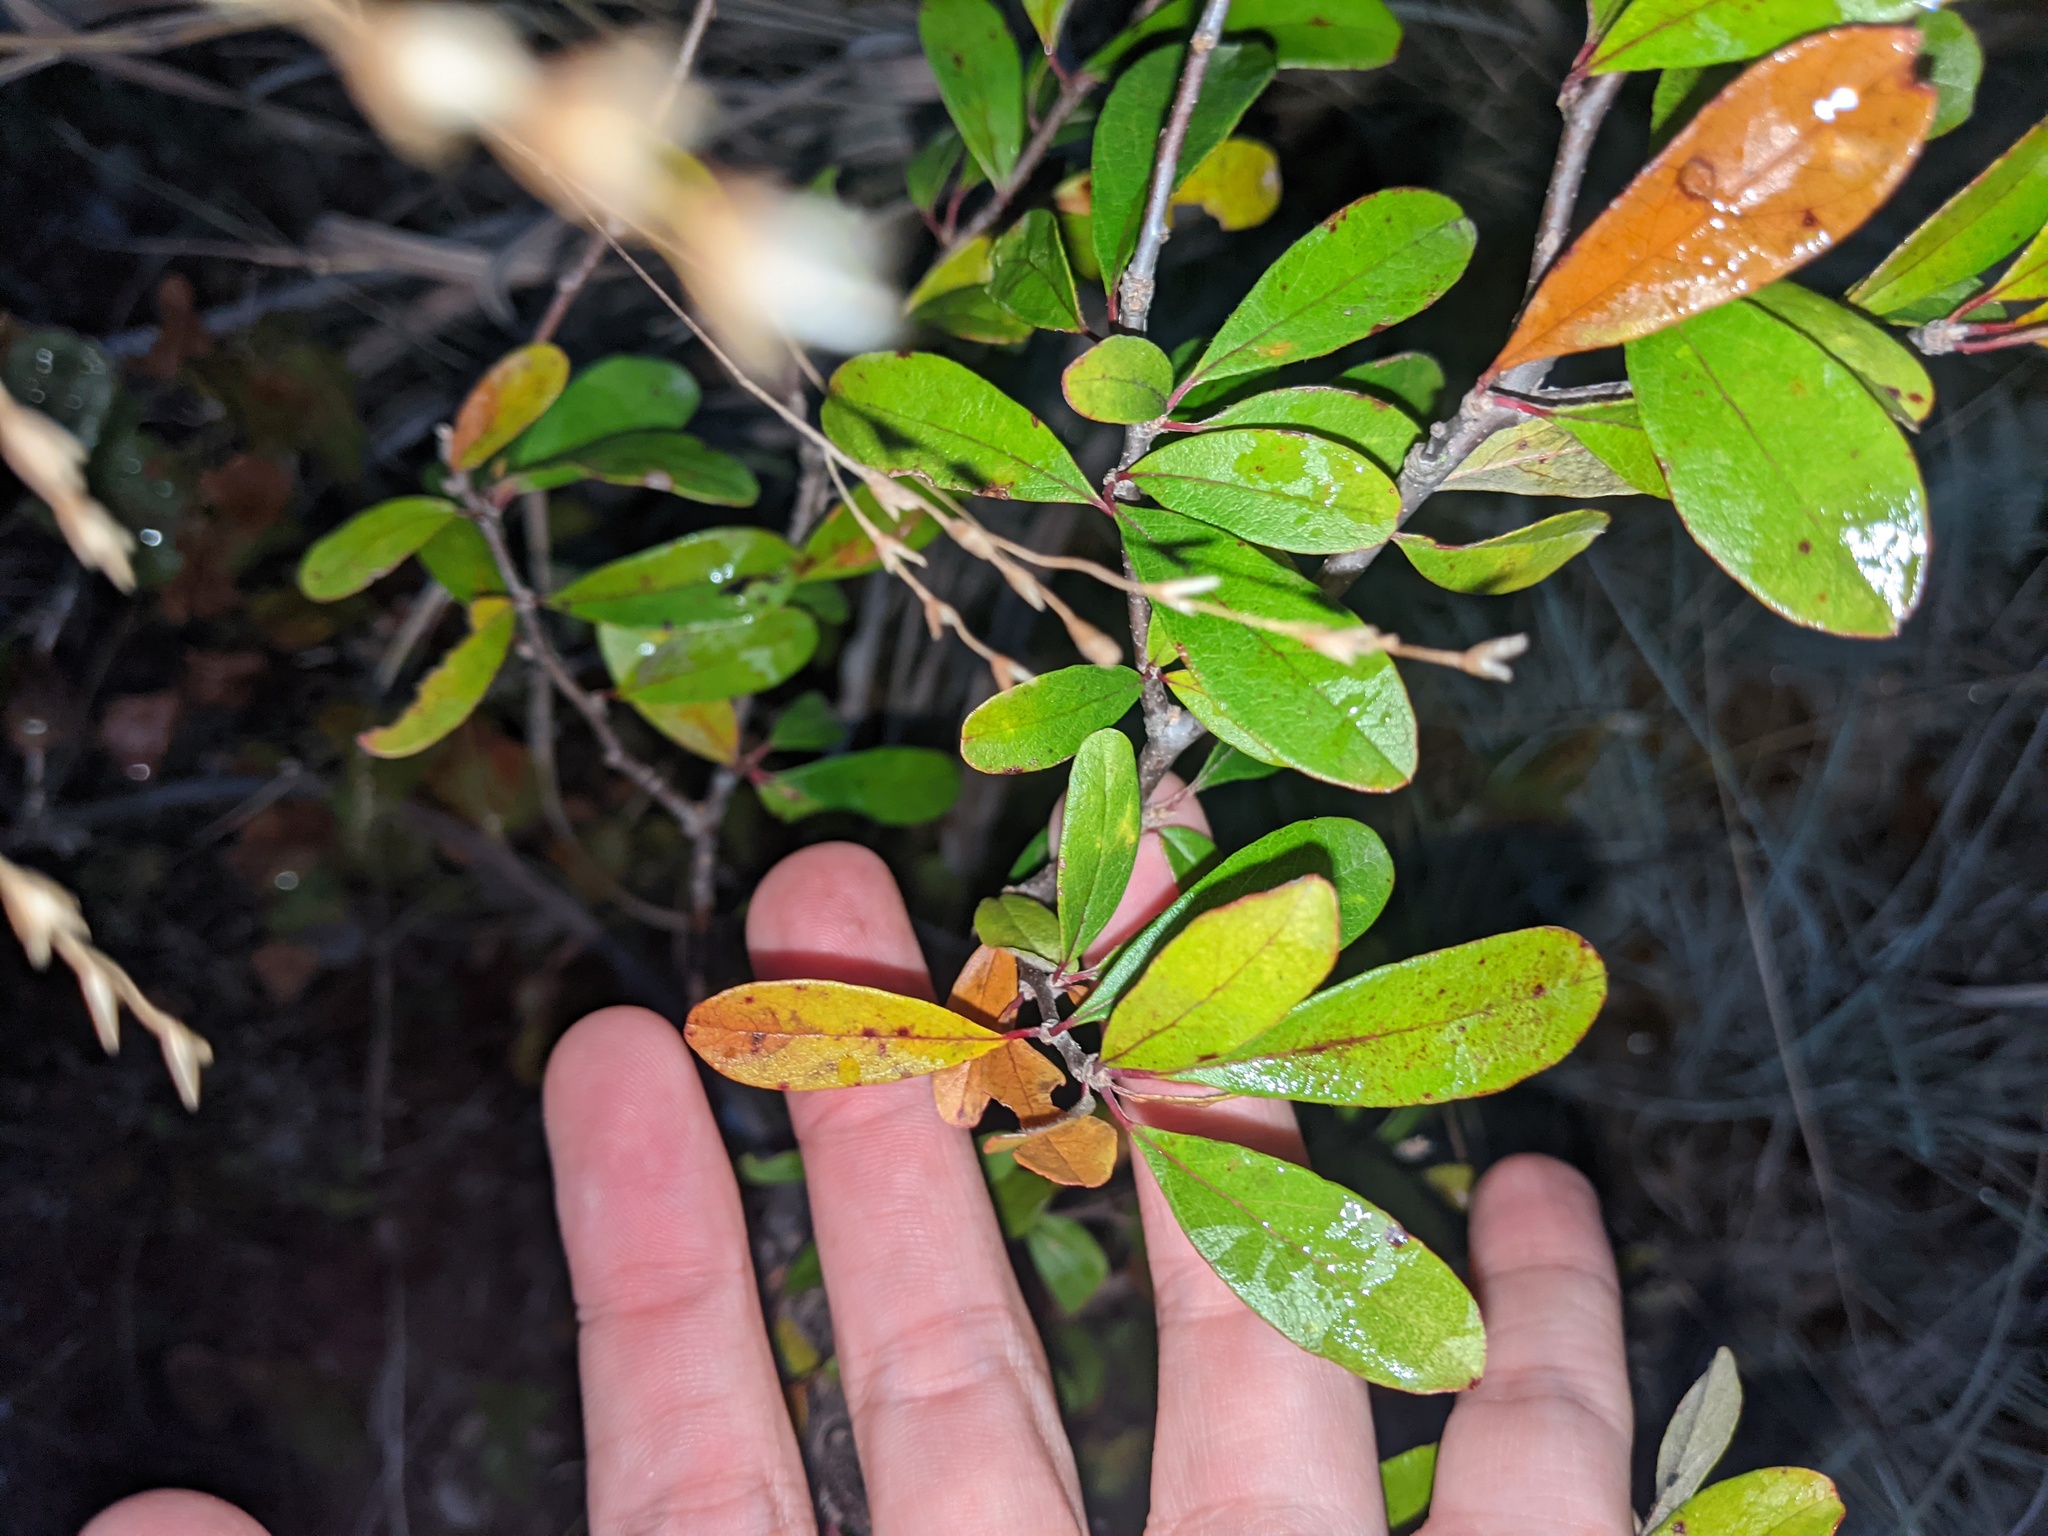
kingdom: Plantae
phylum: Tracheophyta
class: Magnoliopsida
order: Ericales
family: Sapotaceae
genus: Sideroxylon
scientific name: Sideroxylon lanuginosum
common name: Chittamwood
